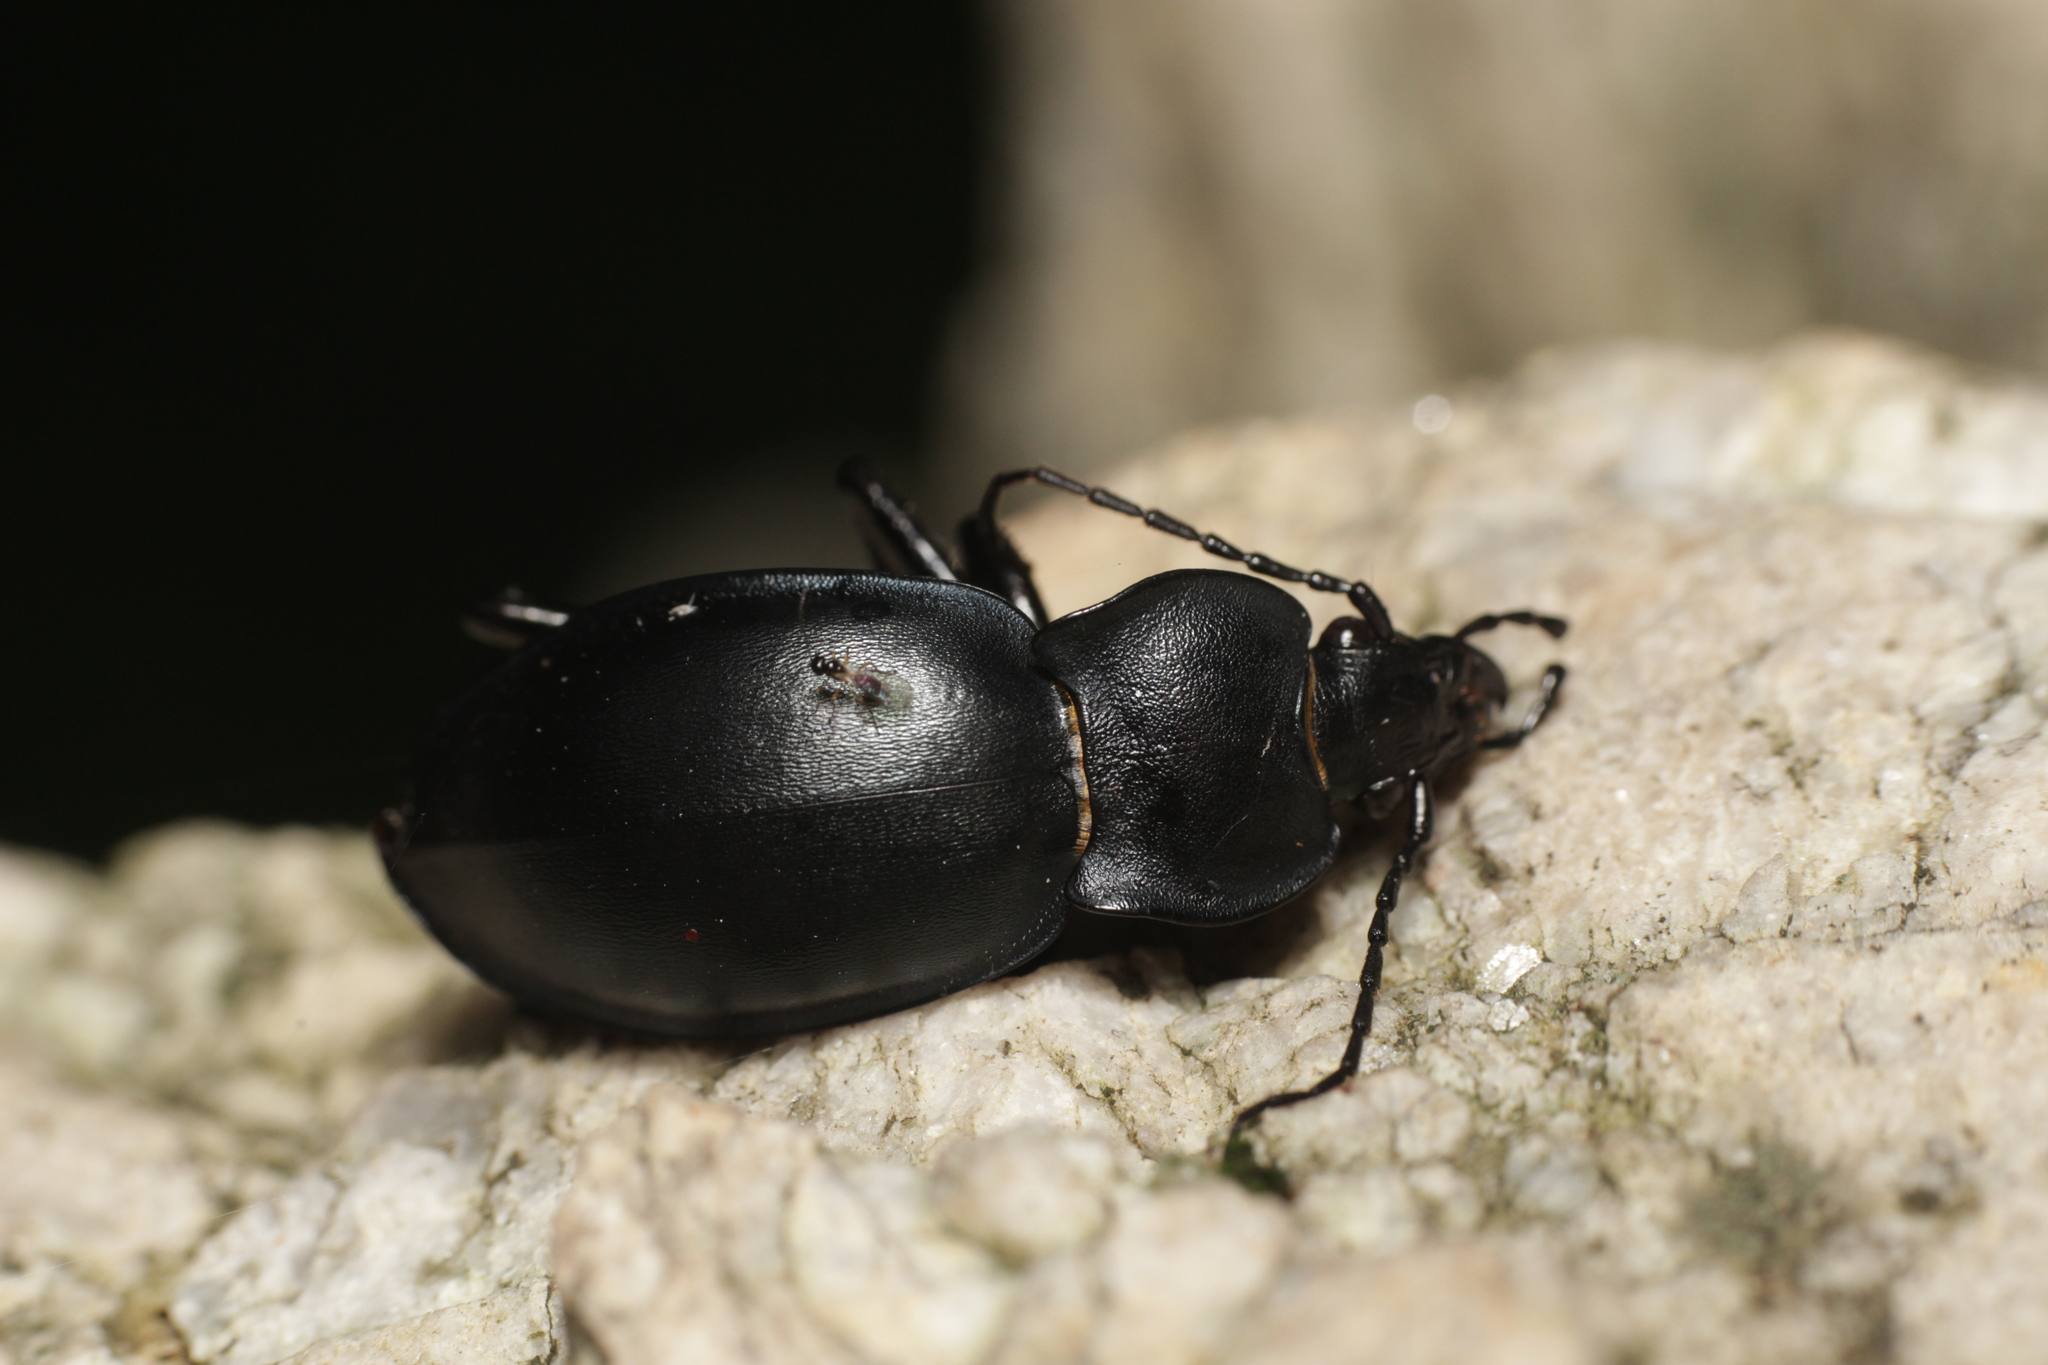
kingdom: Animalia
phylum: Arthropoda
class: Insecta
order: Coleoptera
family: Carabidae
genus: Carabus
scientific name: Carabus glabratus
